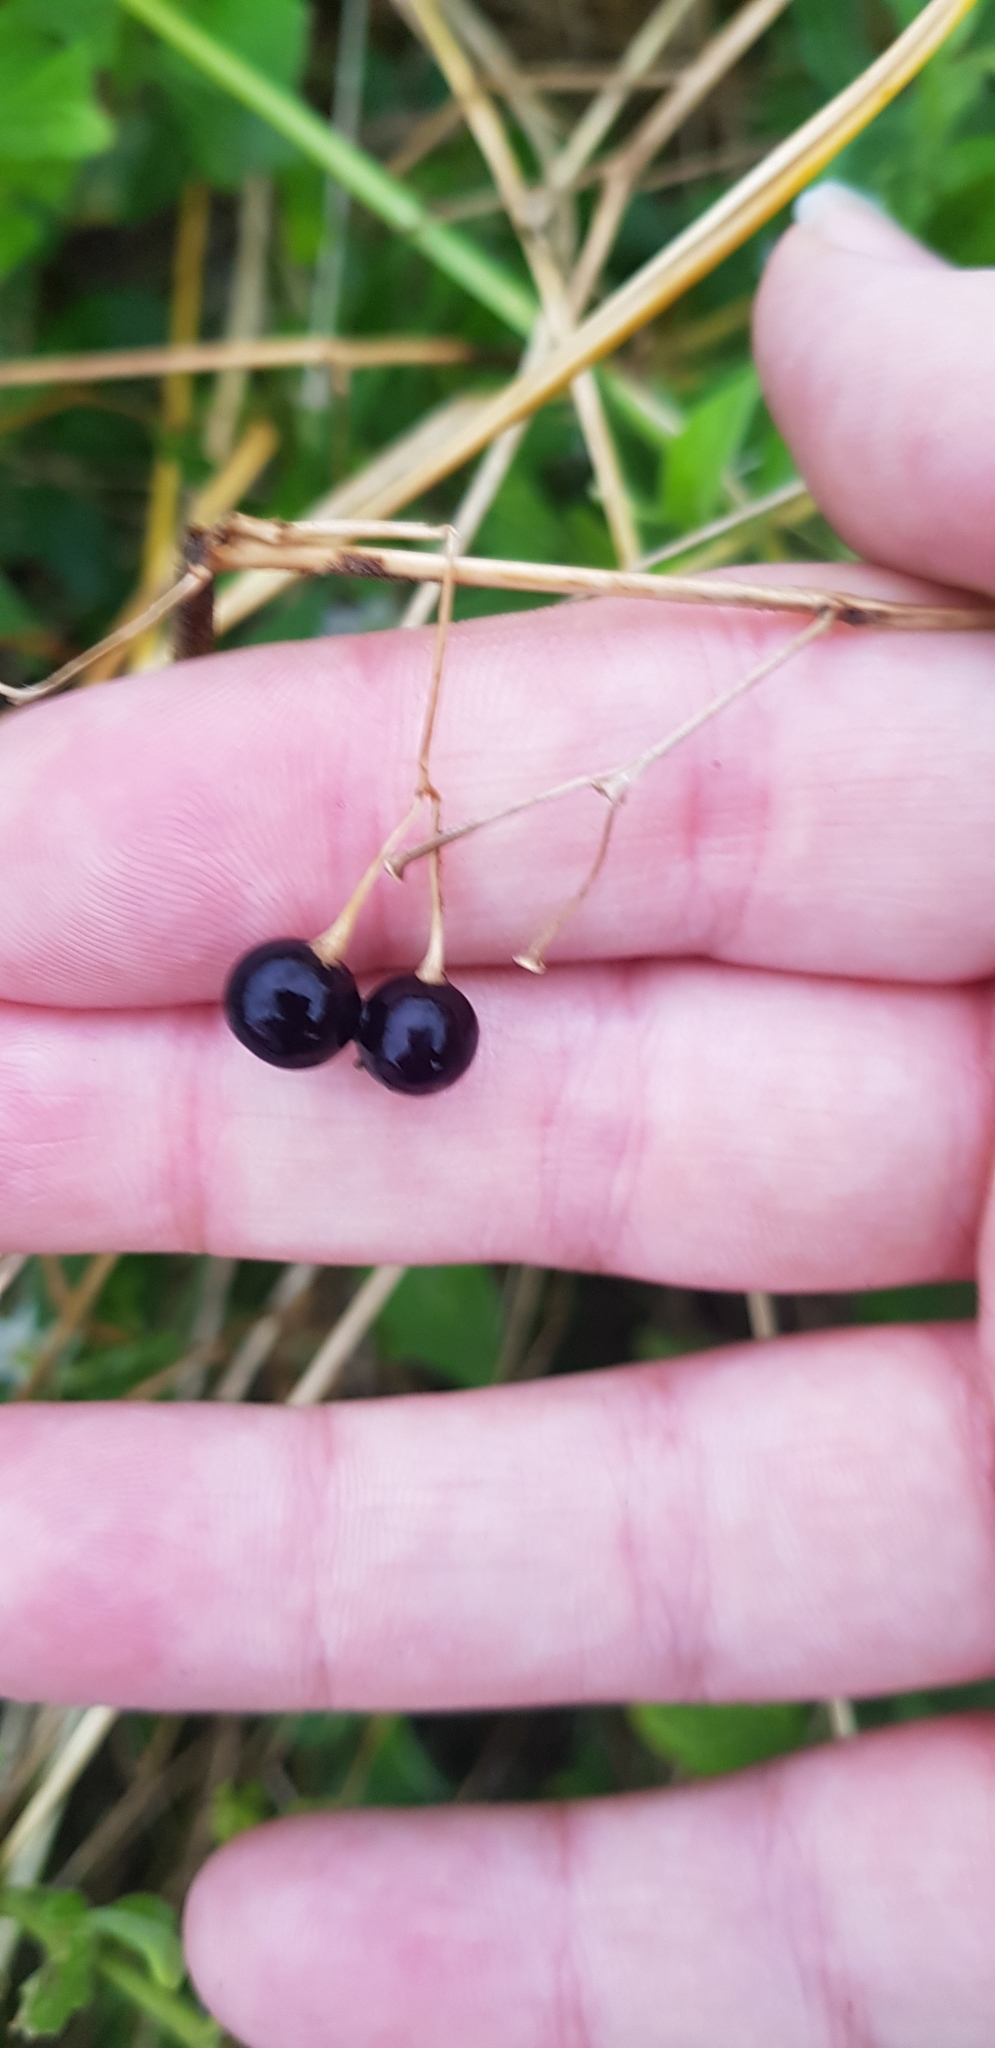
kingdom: Plantae
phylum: Tracheophyta
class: Magnoliopsida
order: Solanales
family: Solanaceae
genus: Solanum
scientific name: Solanum chenopodioides
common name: Tall nightshade
